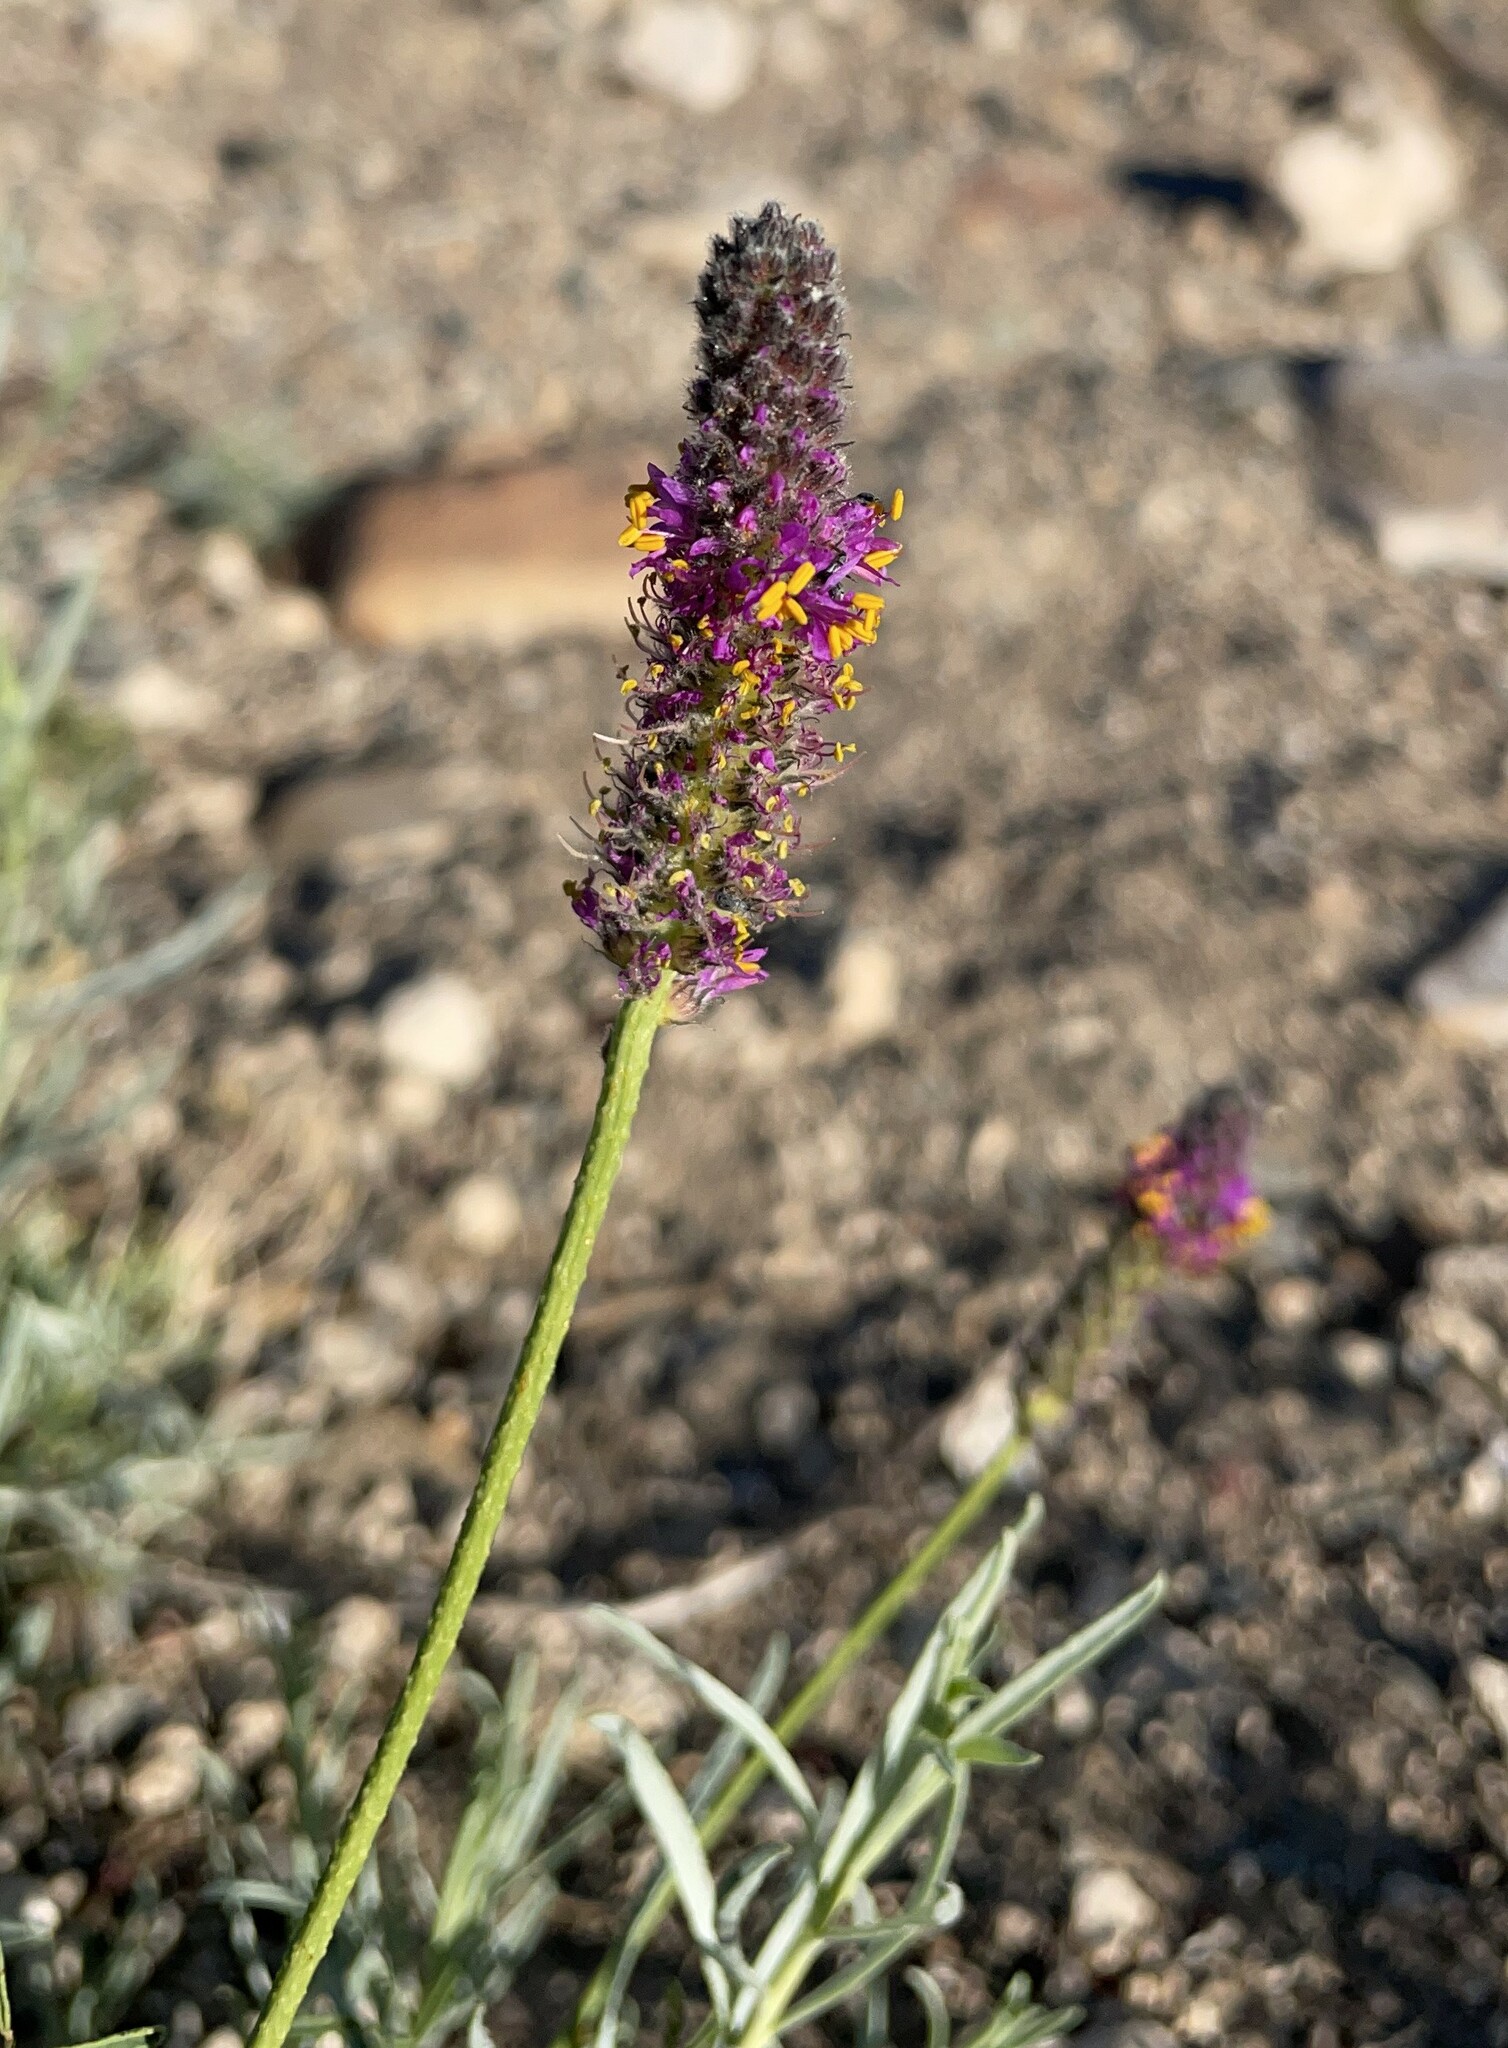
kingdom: Plantae
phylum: Tracheophyta
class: Magnoliopsida
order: Fabales
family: Fabaceae
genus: Dalea
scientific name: Dalea searlsiae
